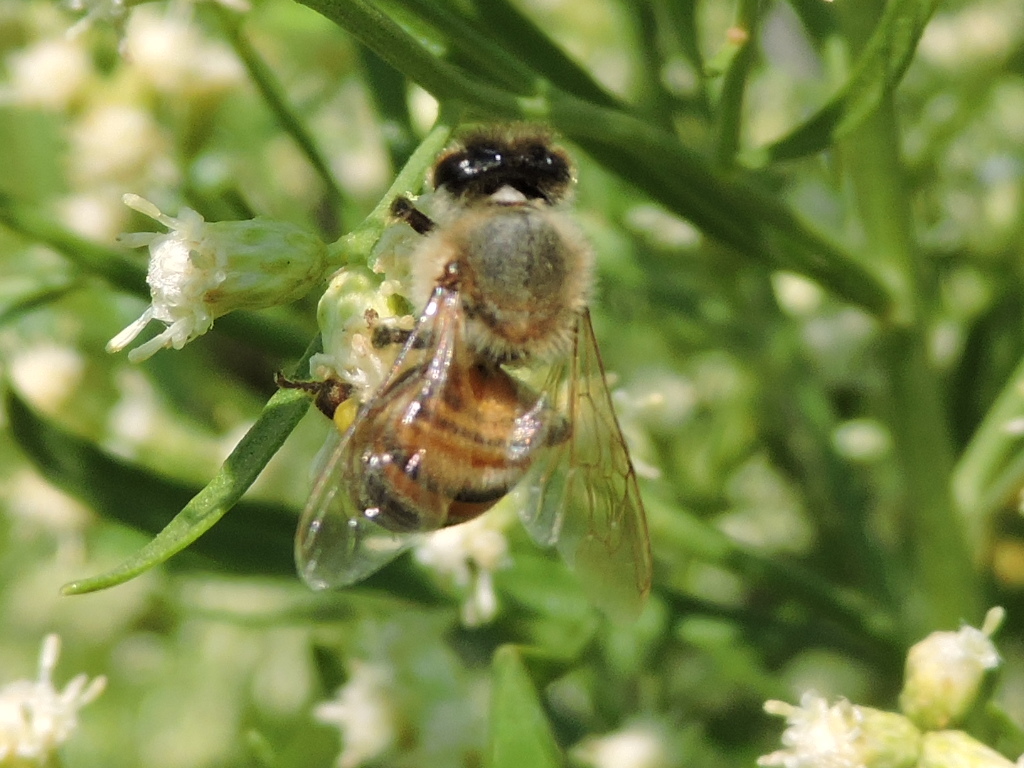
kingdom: Animalia
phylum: Arthropoda
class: Insecta
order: Hymenoptera
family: Apidae
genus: Apis
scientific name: Apis mellifera
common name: Honey bee
